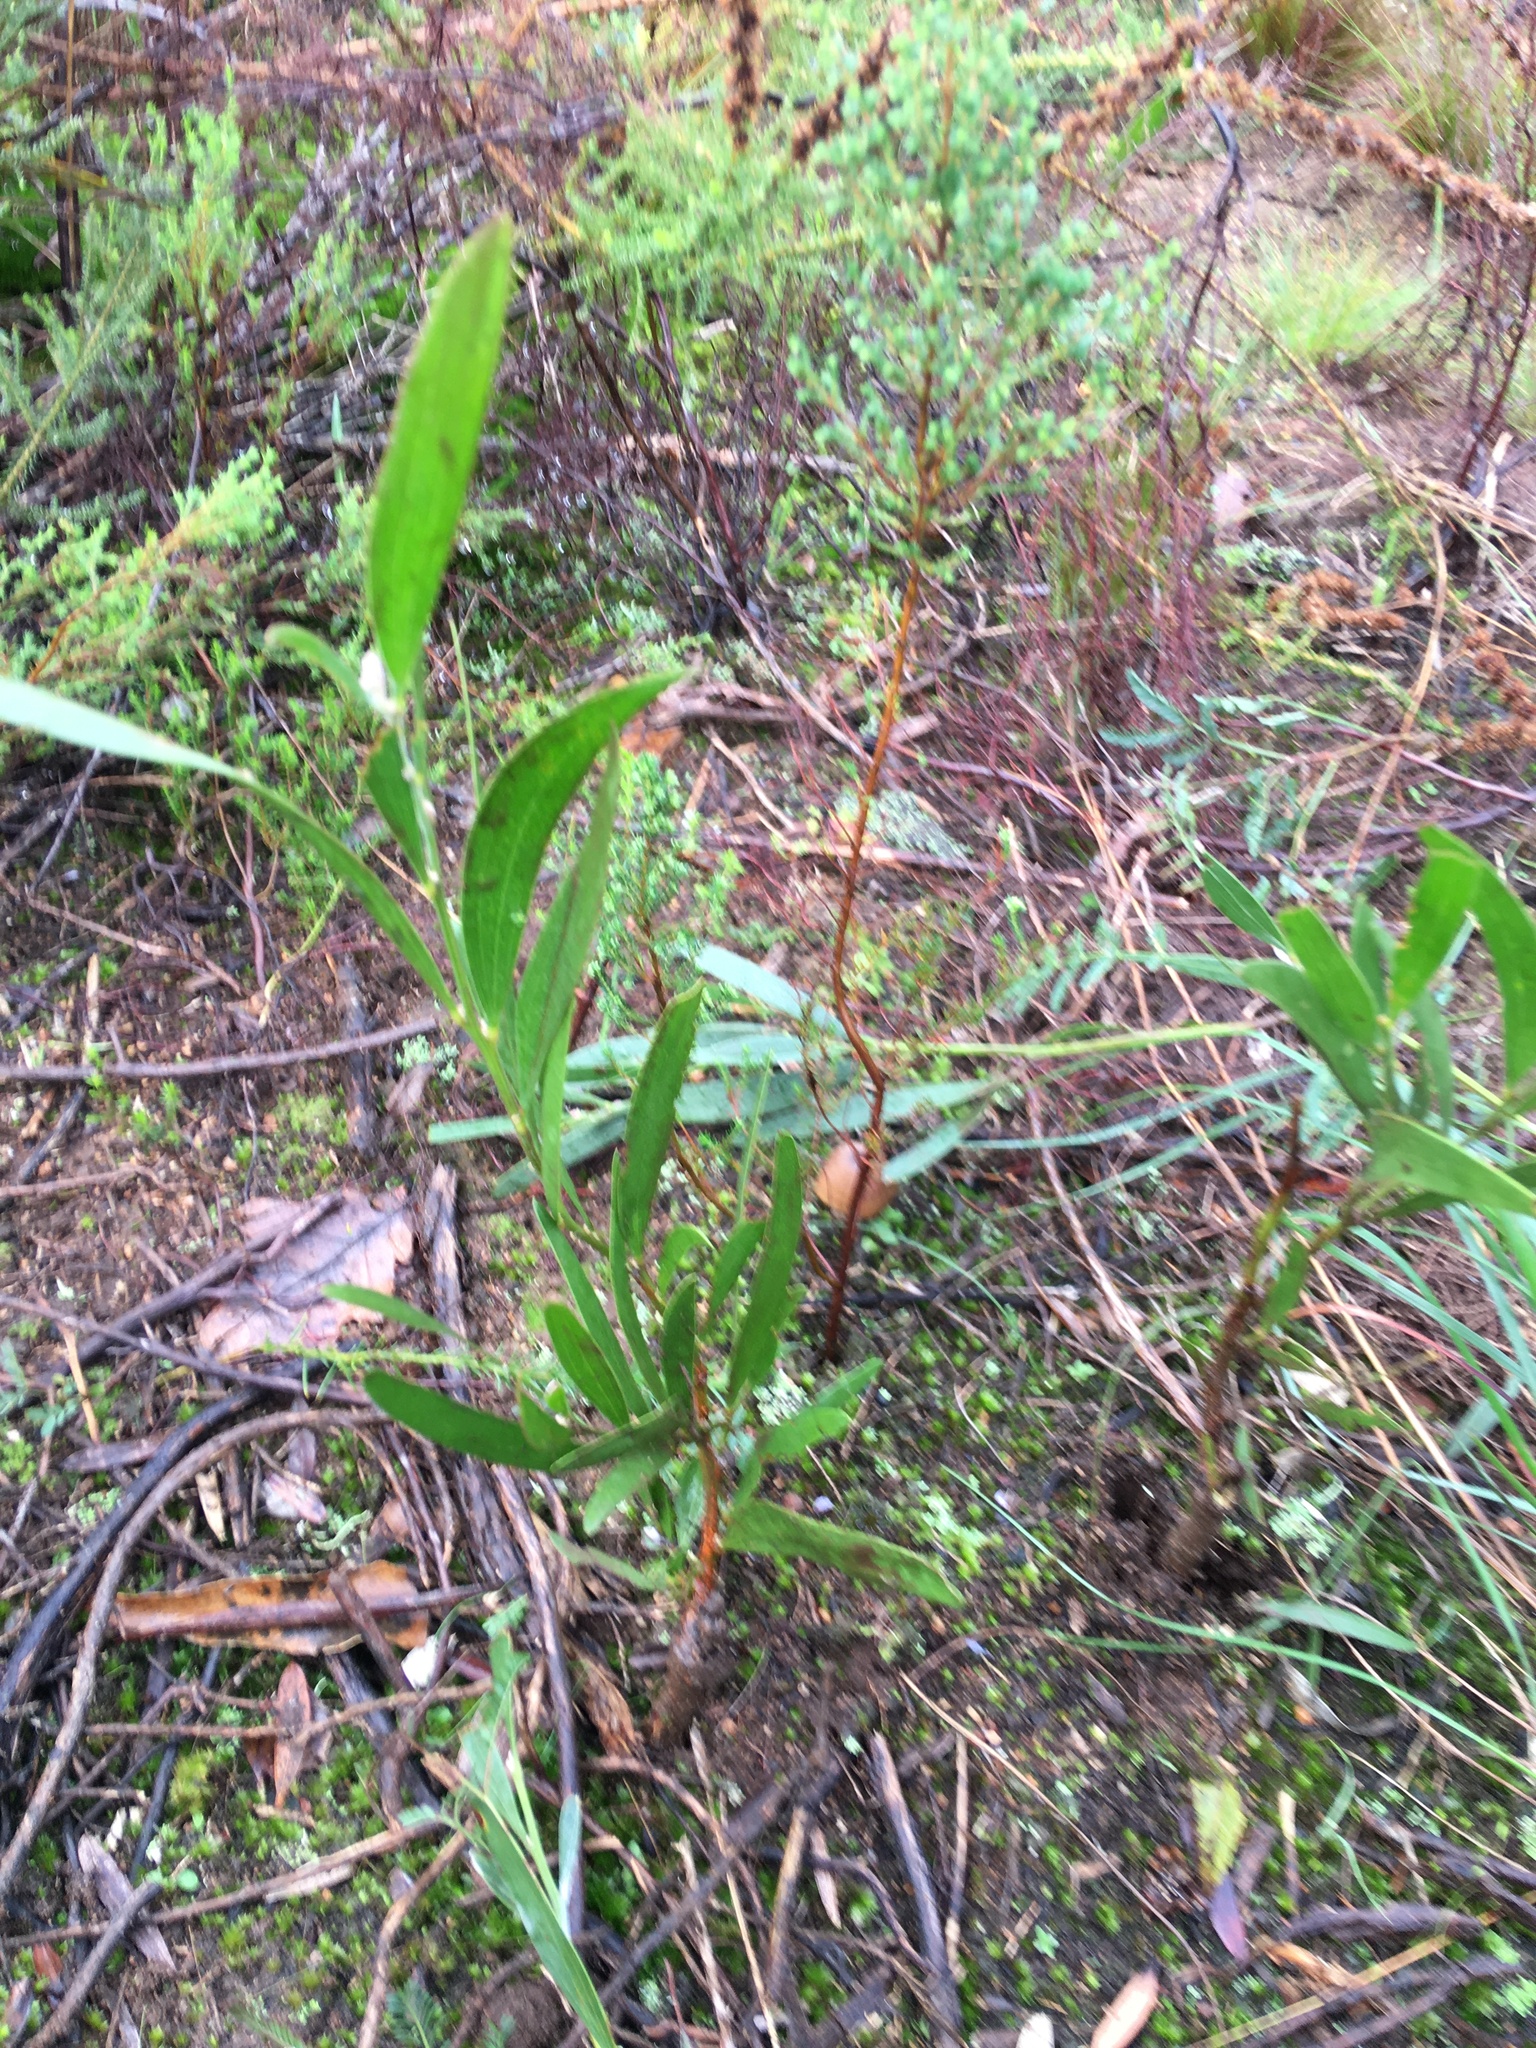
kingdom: Plantae
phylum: Tracheophyta
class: Magnoliopsida
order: Fabales
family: Fabaceae
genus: Acacia
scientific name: Acacia saligna
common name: Orange wattle
